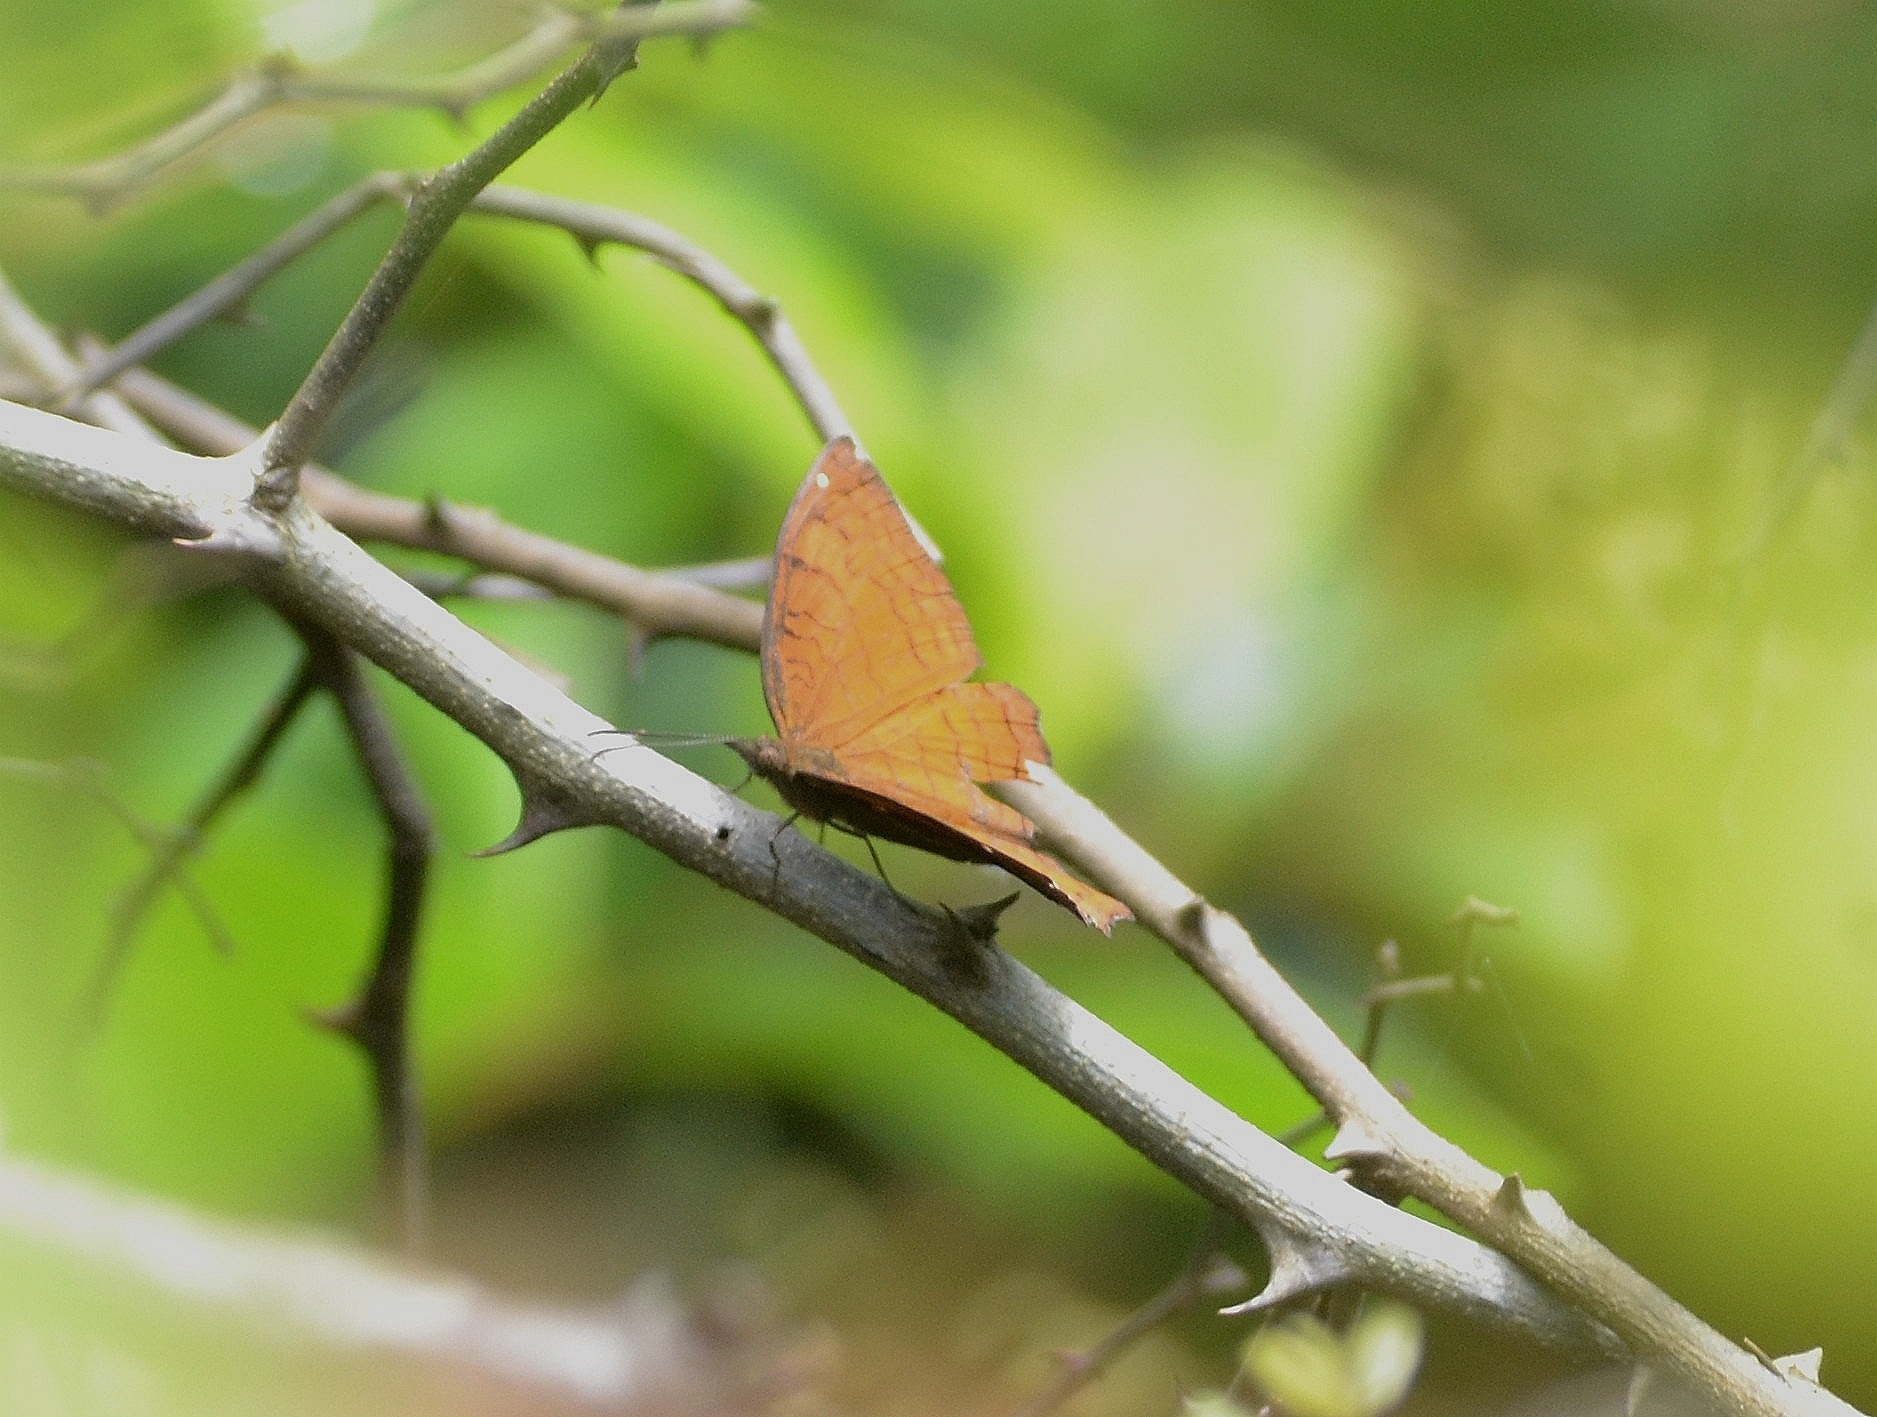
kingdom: Animalia
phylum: Arthropoda
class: Insecta
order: Lepidoptera
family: Nymphalidae
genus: Ariadne
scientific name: Ariadne ariadne
